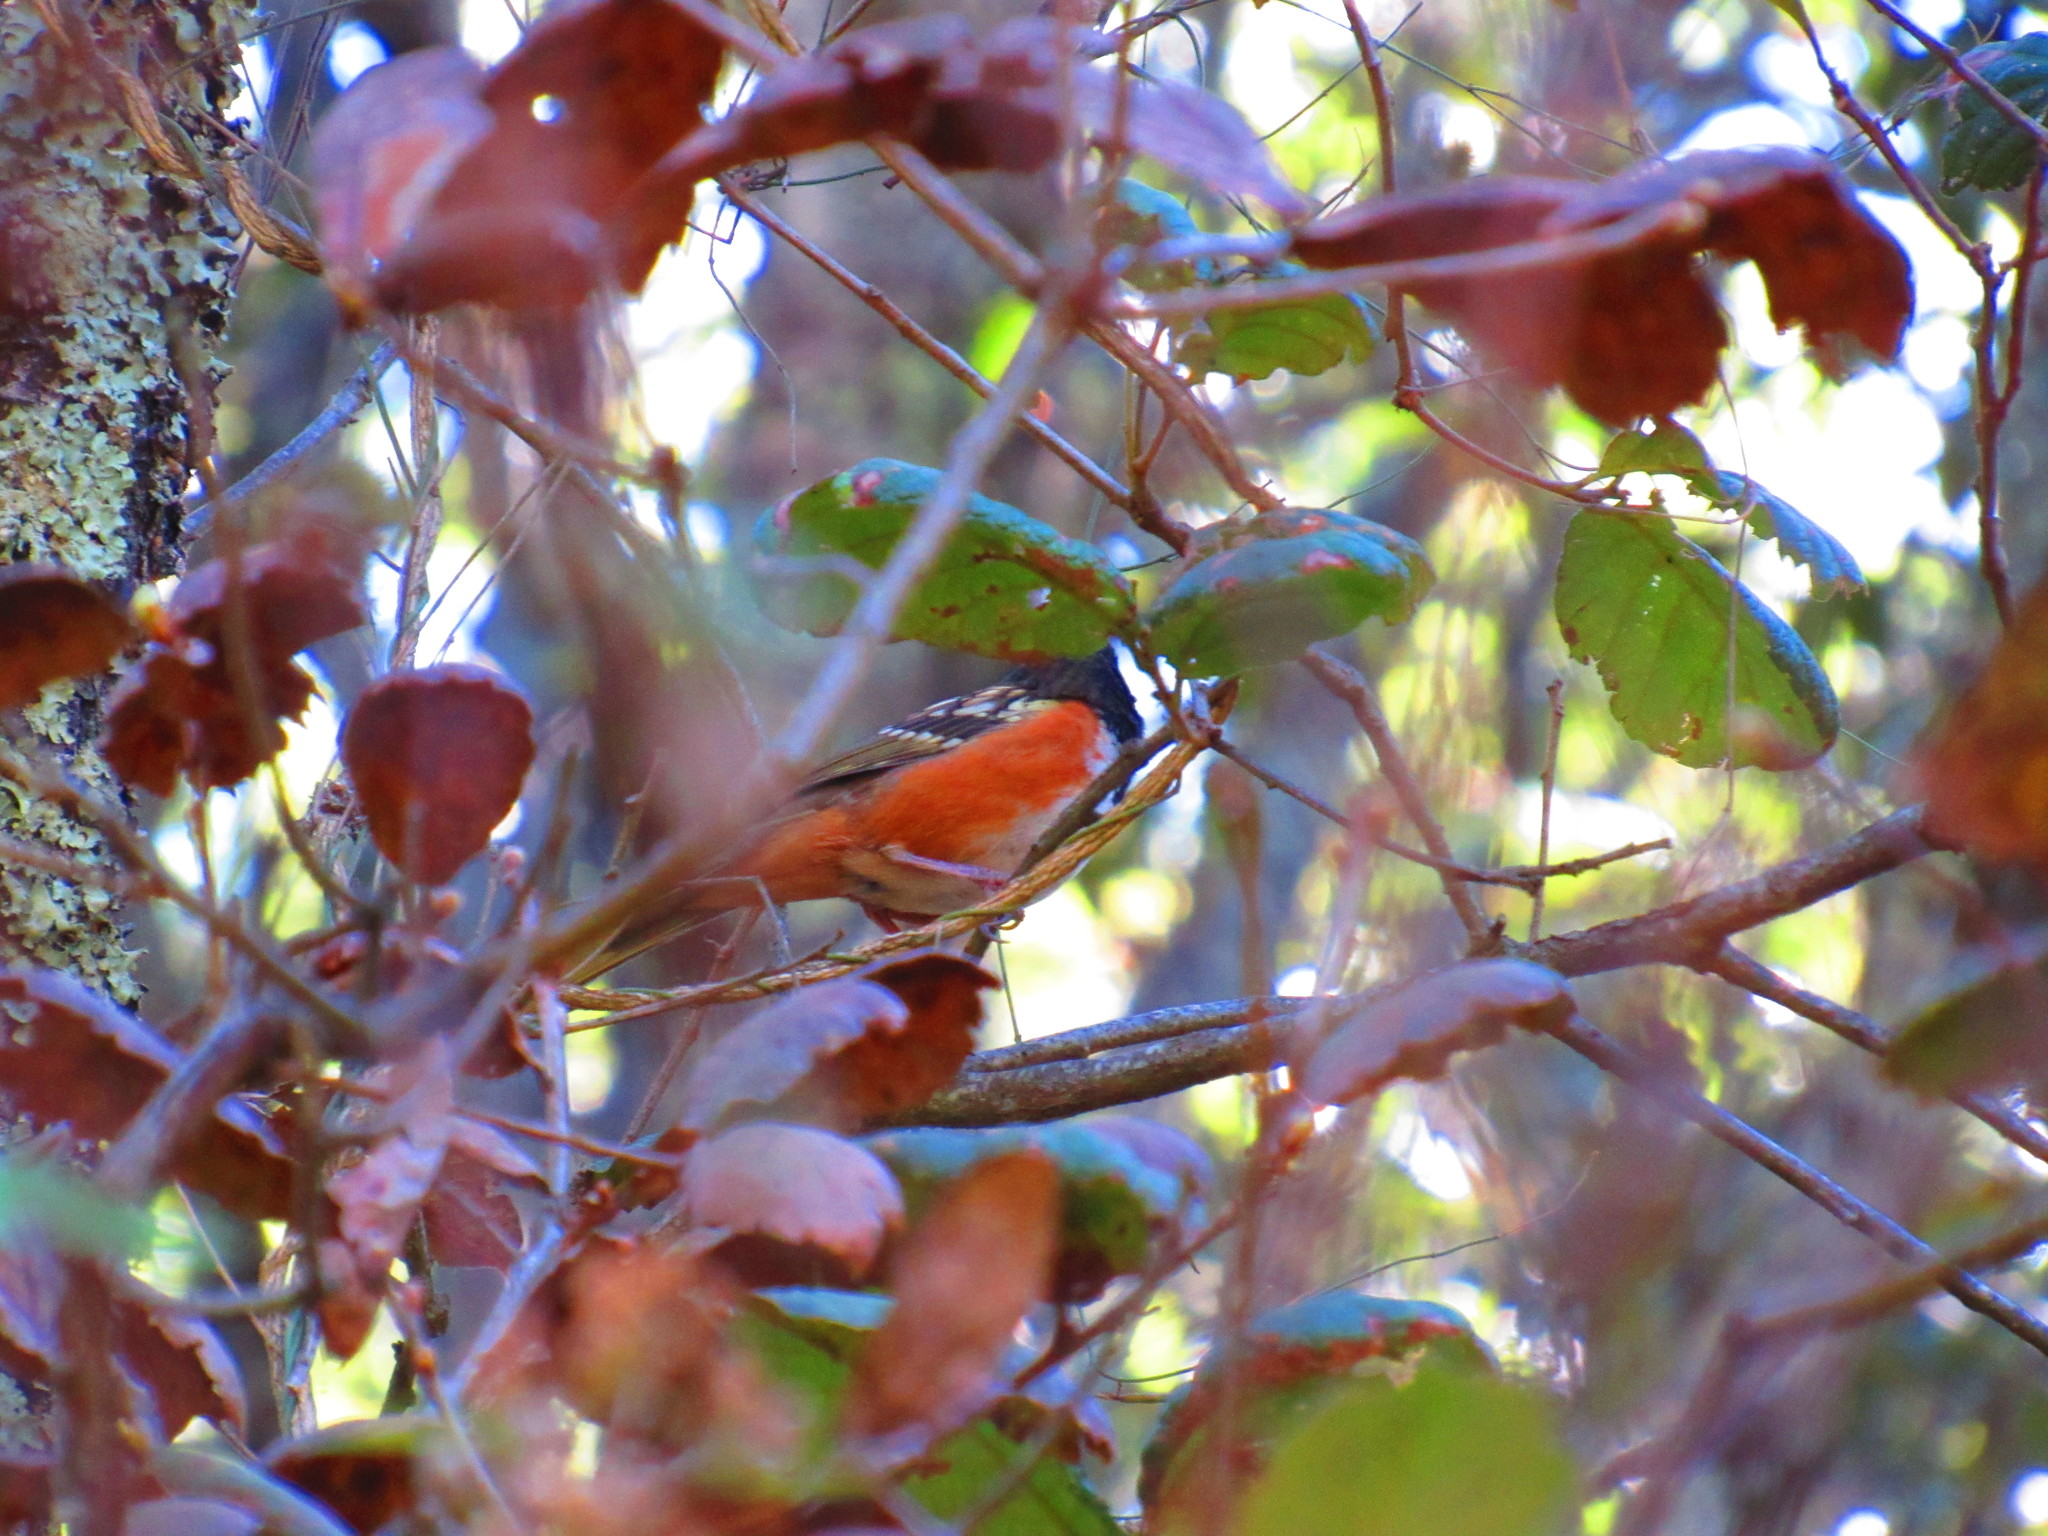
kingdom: Animalia
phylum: Chordata
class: Aves
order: Passeriformes
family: Passerellidae
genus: Pipilo
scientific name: Pipilo maculatus
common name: Spotted towhee
